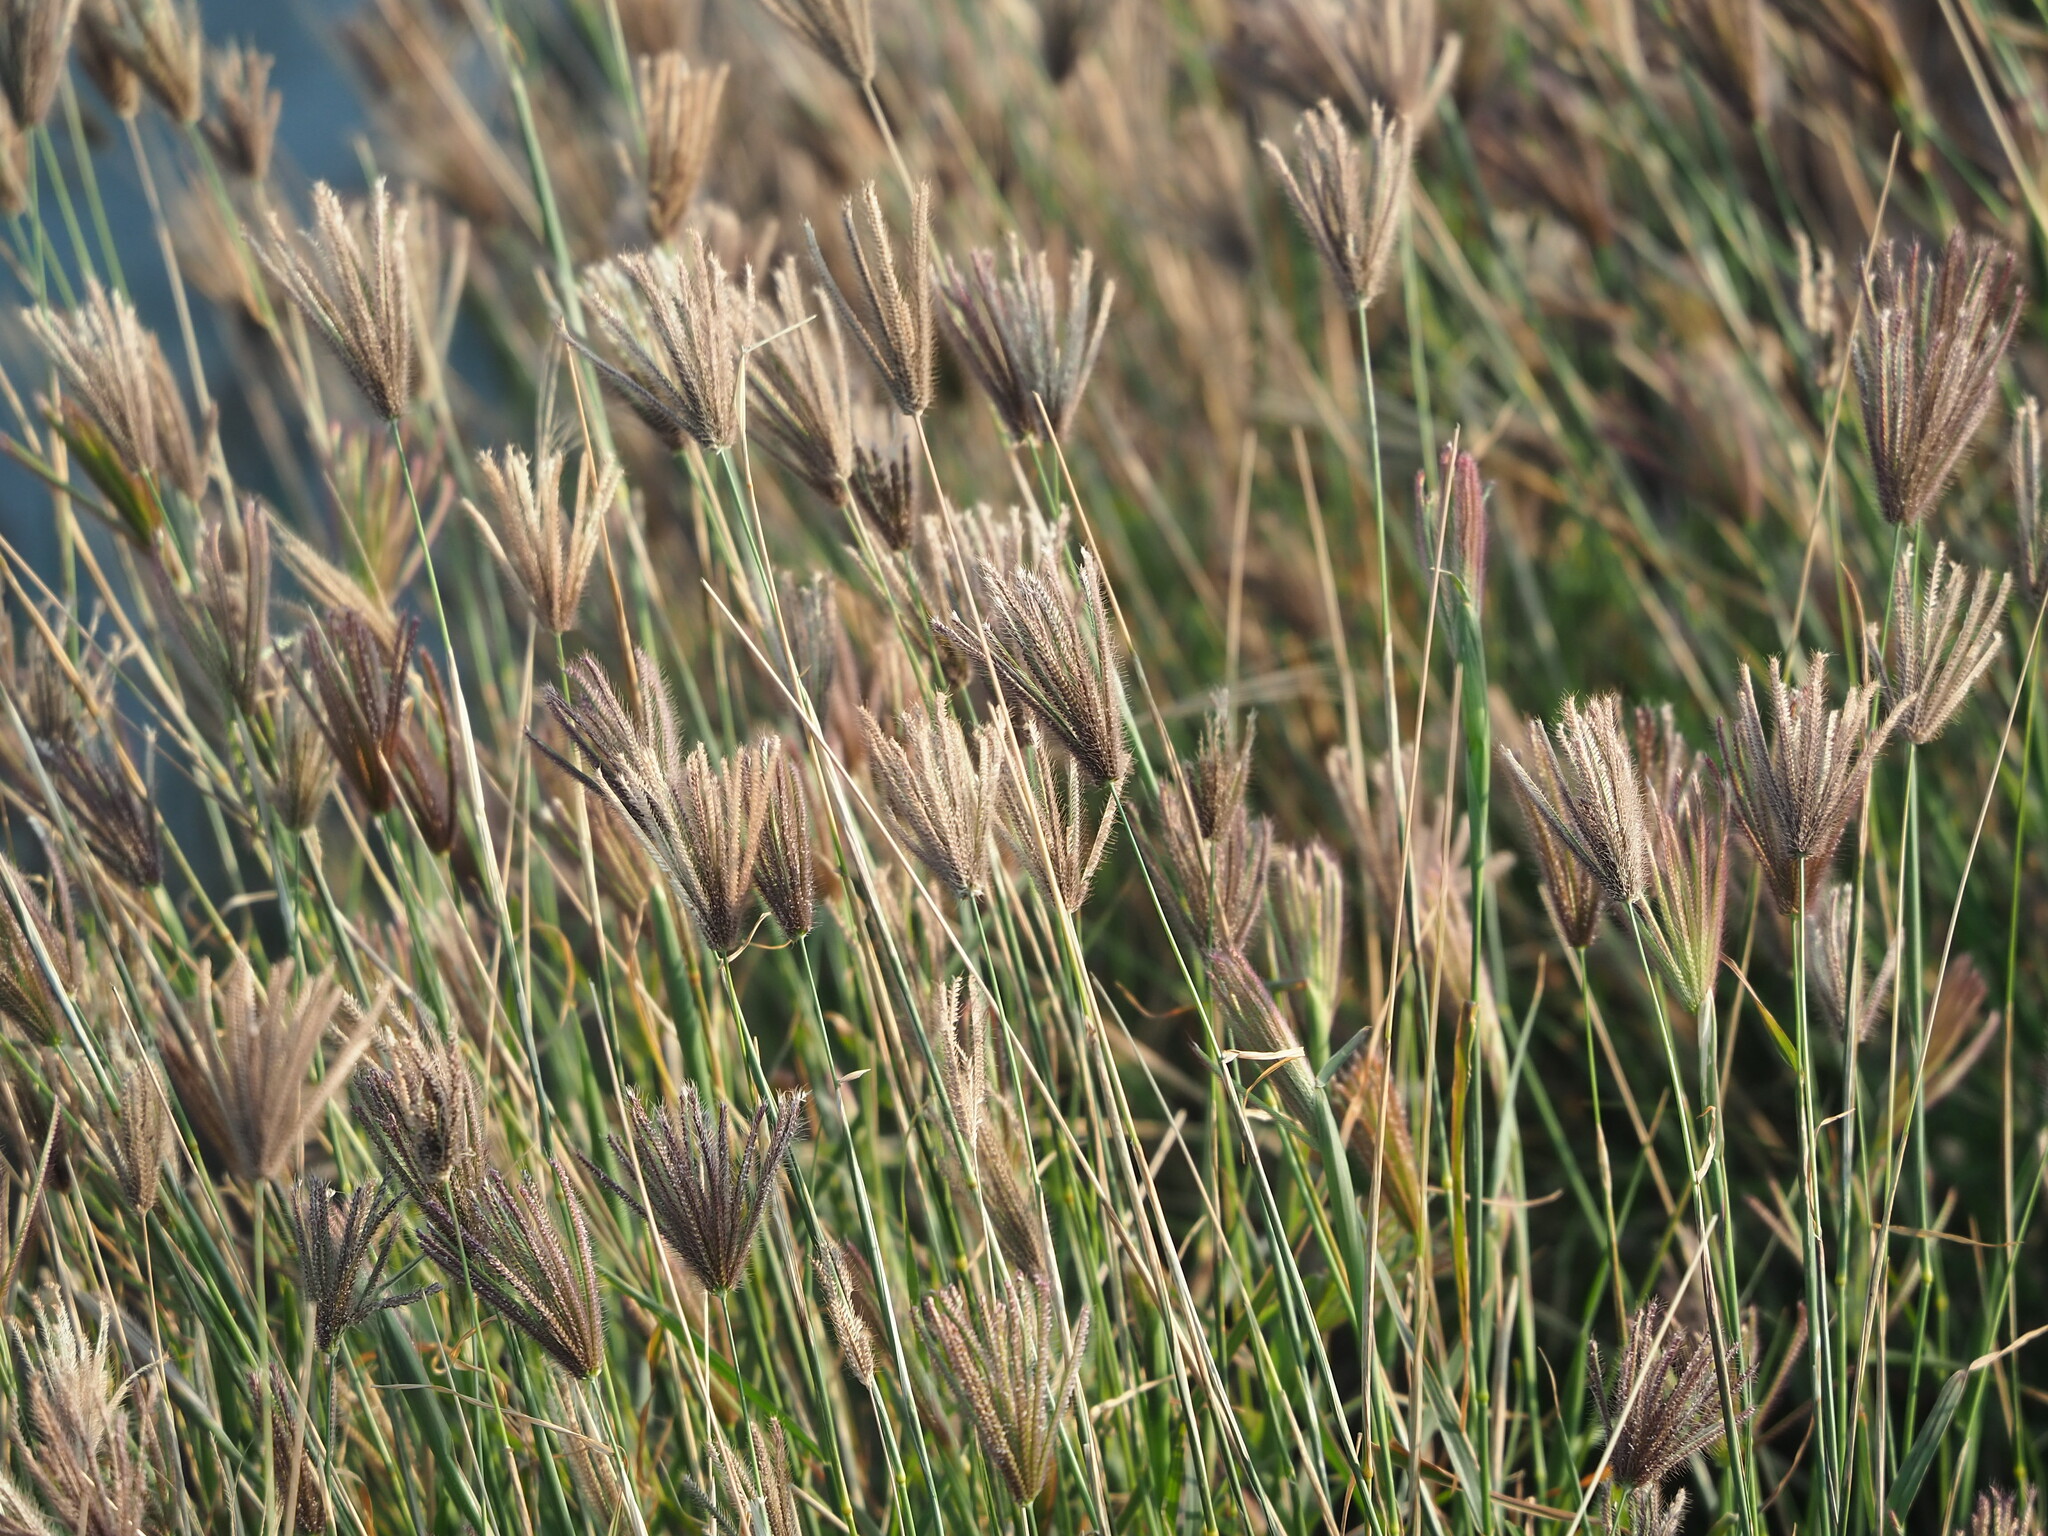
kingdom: Plantae
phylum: Tracheophyta
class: Liliopsida
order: Poales
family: Poaceae
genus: Chloris
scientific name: Chloris barbata
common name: Swollen fingergrass
